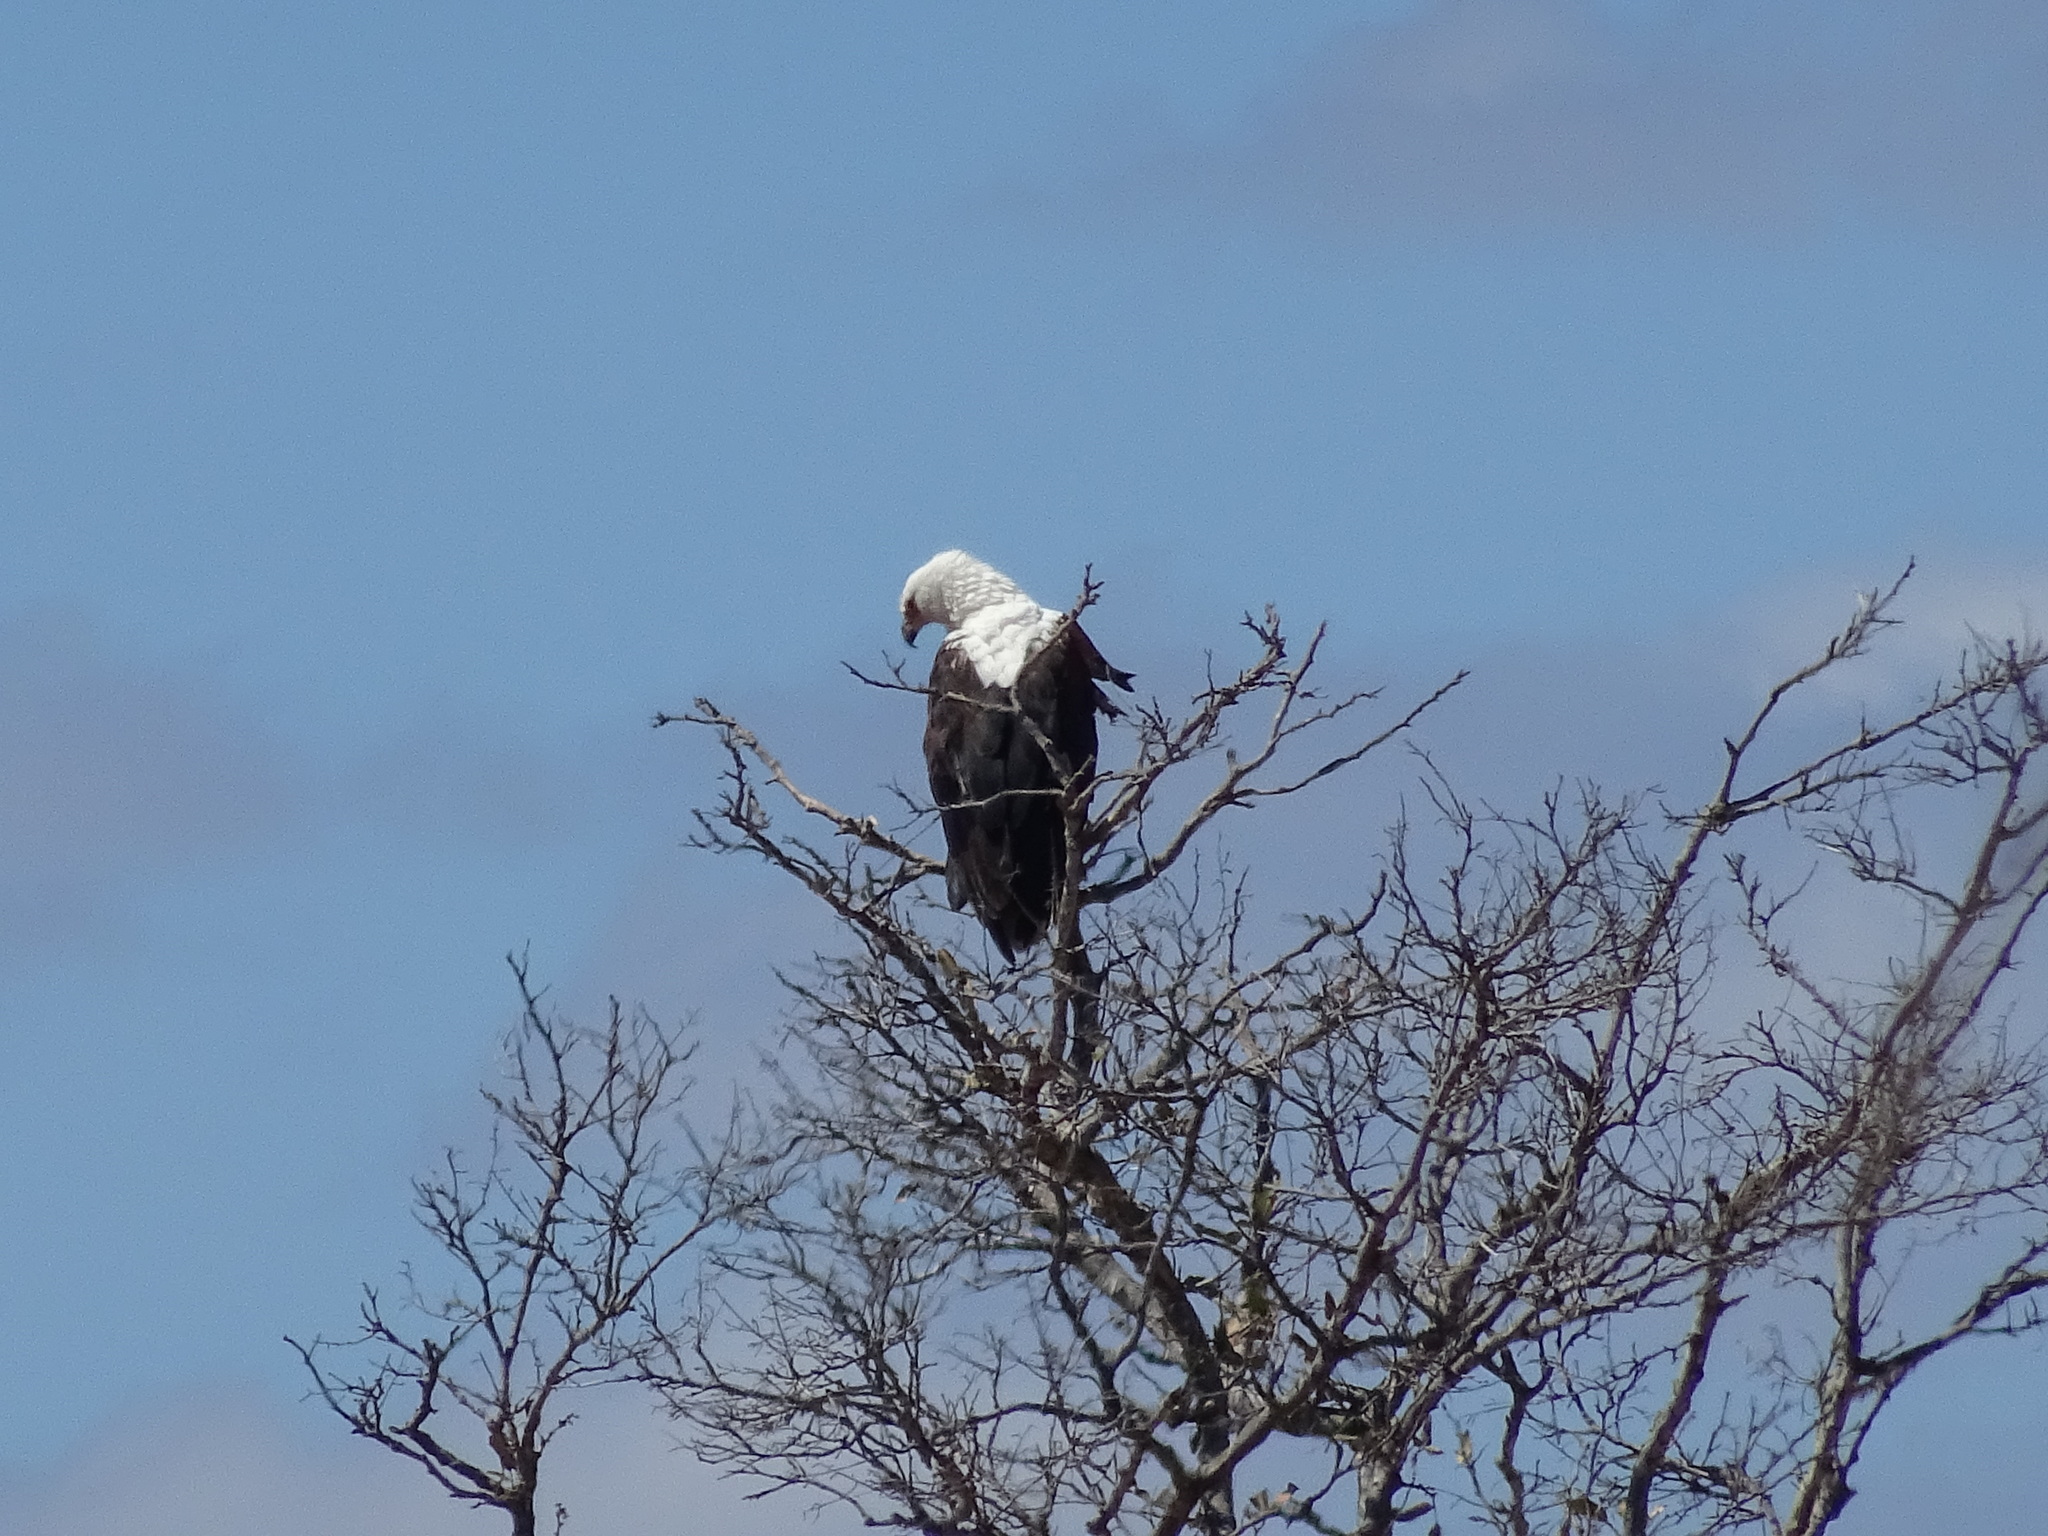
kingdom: Animalia
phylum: Chordata
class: Aves
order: Accipitriformes
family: Accipitridae
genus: Haliaeetus
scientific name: Haliaeetus vocifer
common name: African fish eagle
